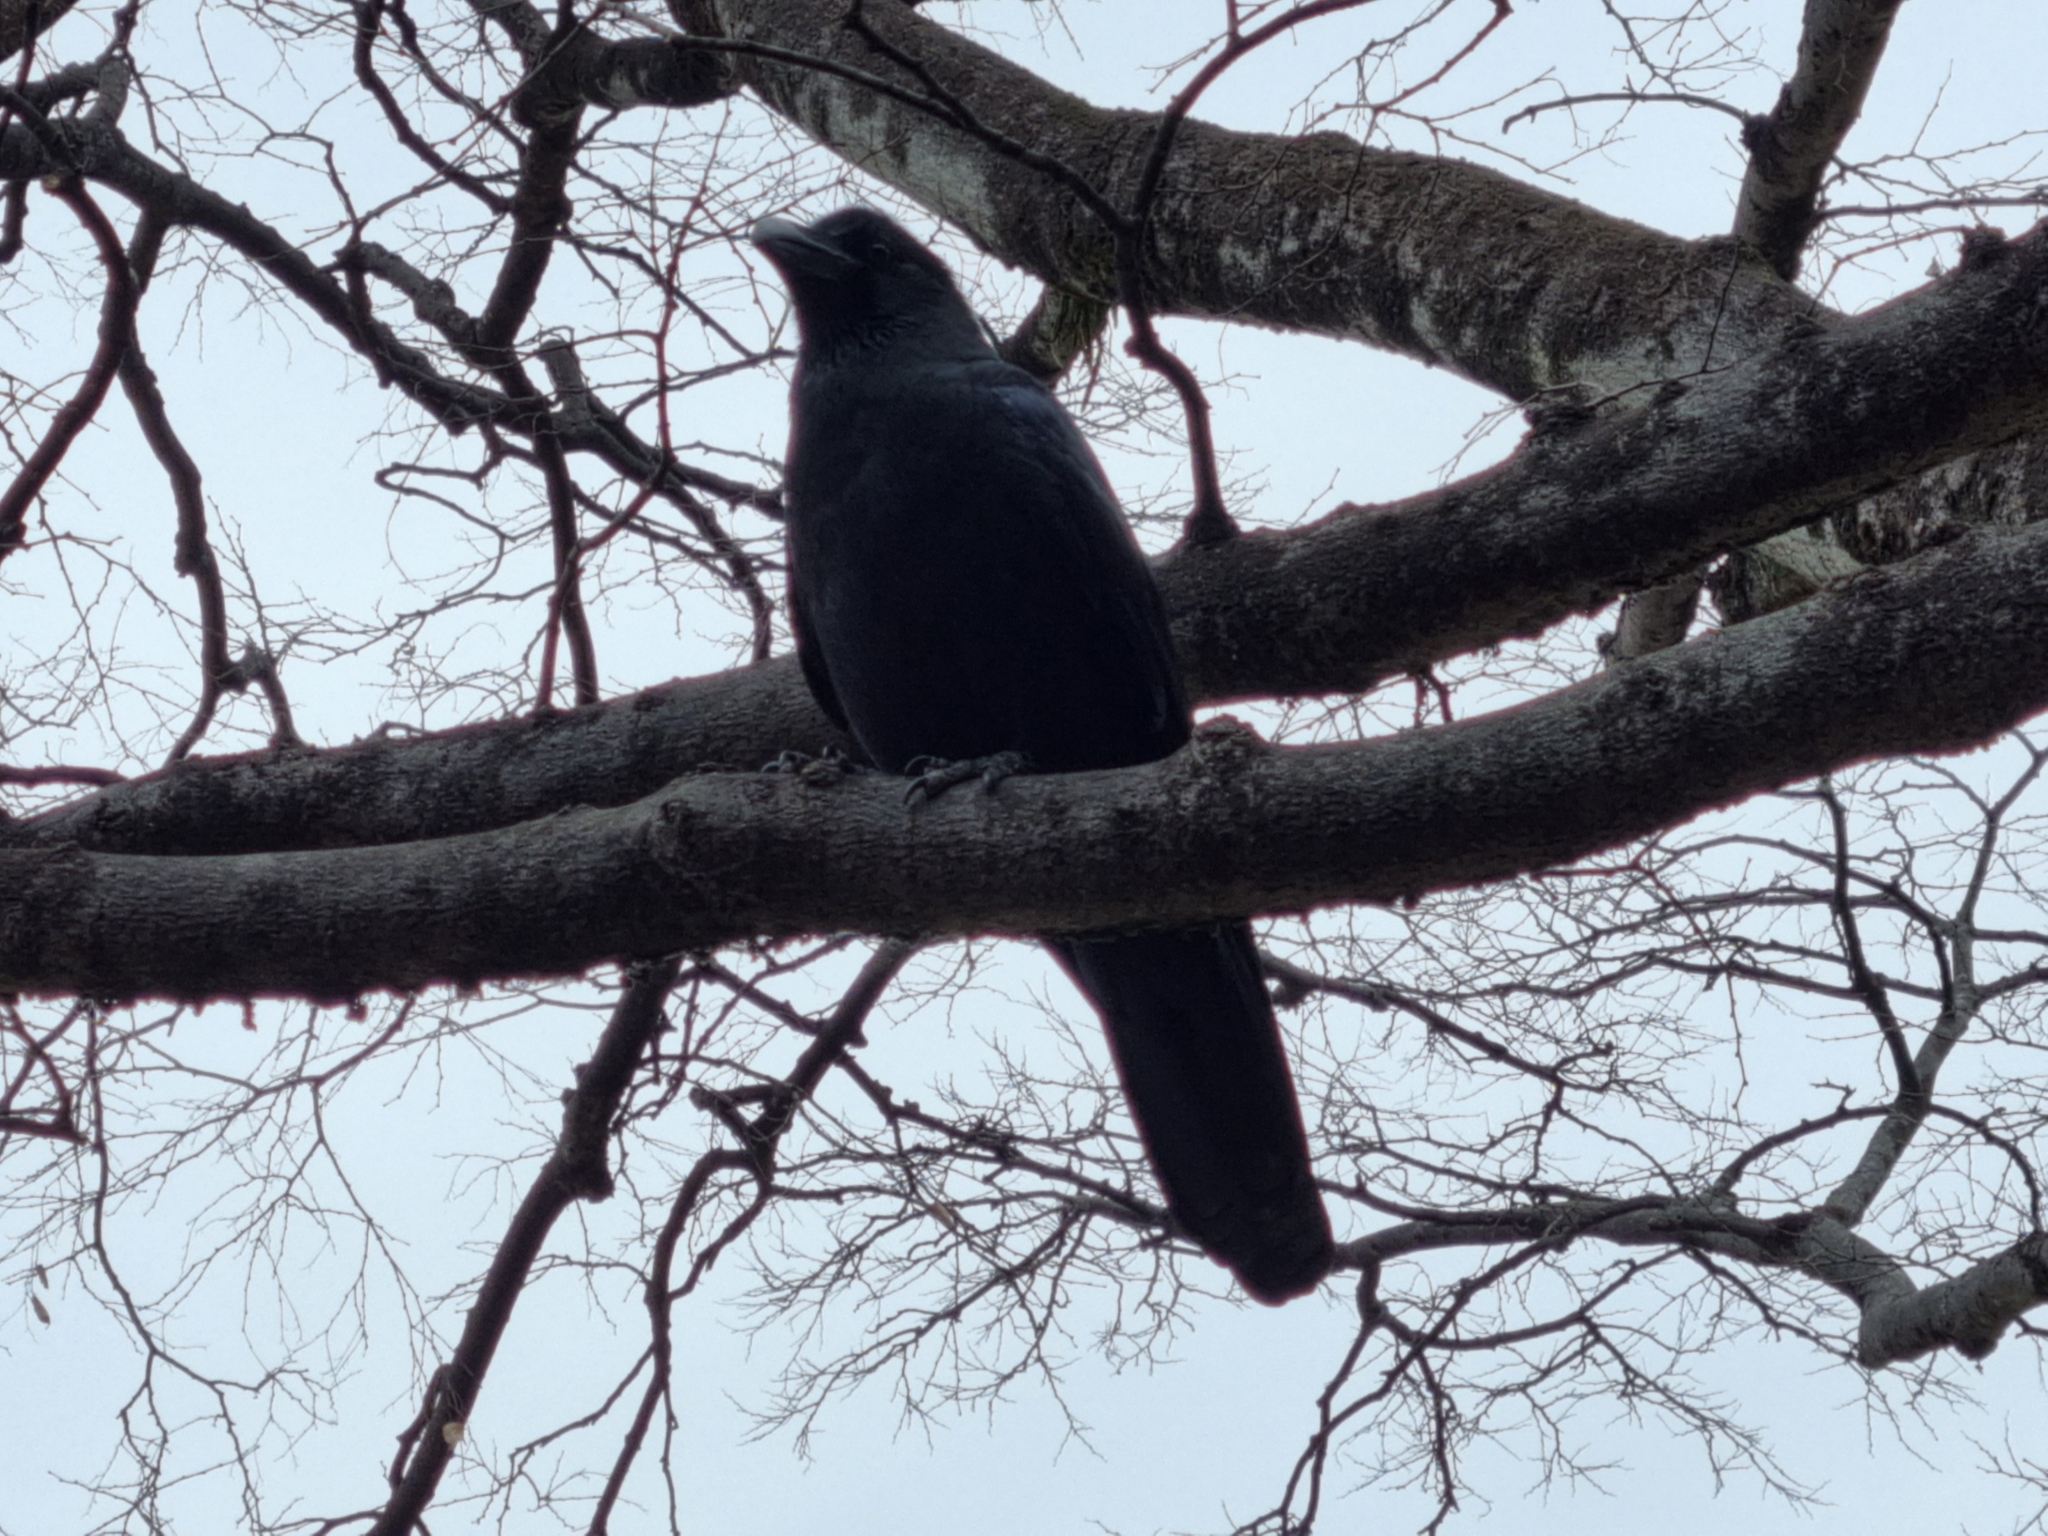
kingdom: Animalia
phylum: Chordata
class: Aves
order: Passeriformes
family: Corvidae
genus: Corvus
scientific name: Corvus macrorhynchos
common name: Large-billed crow
